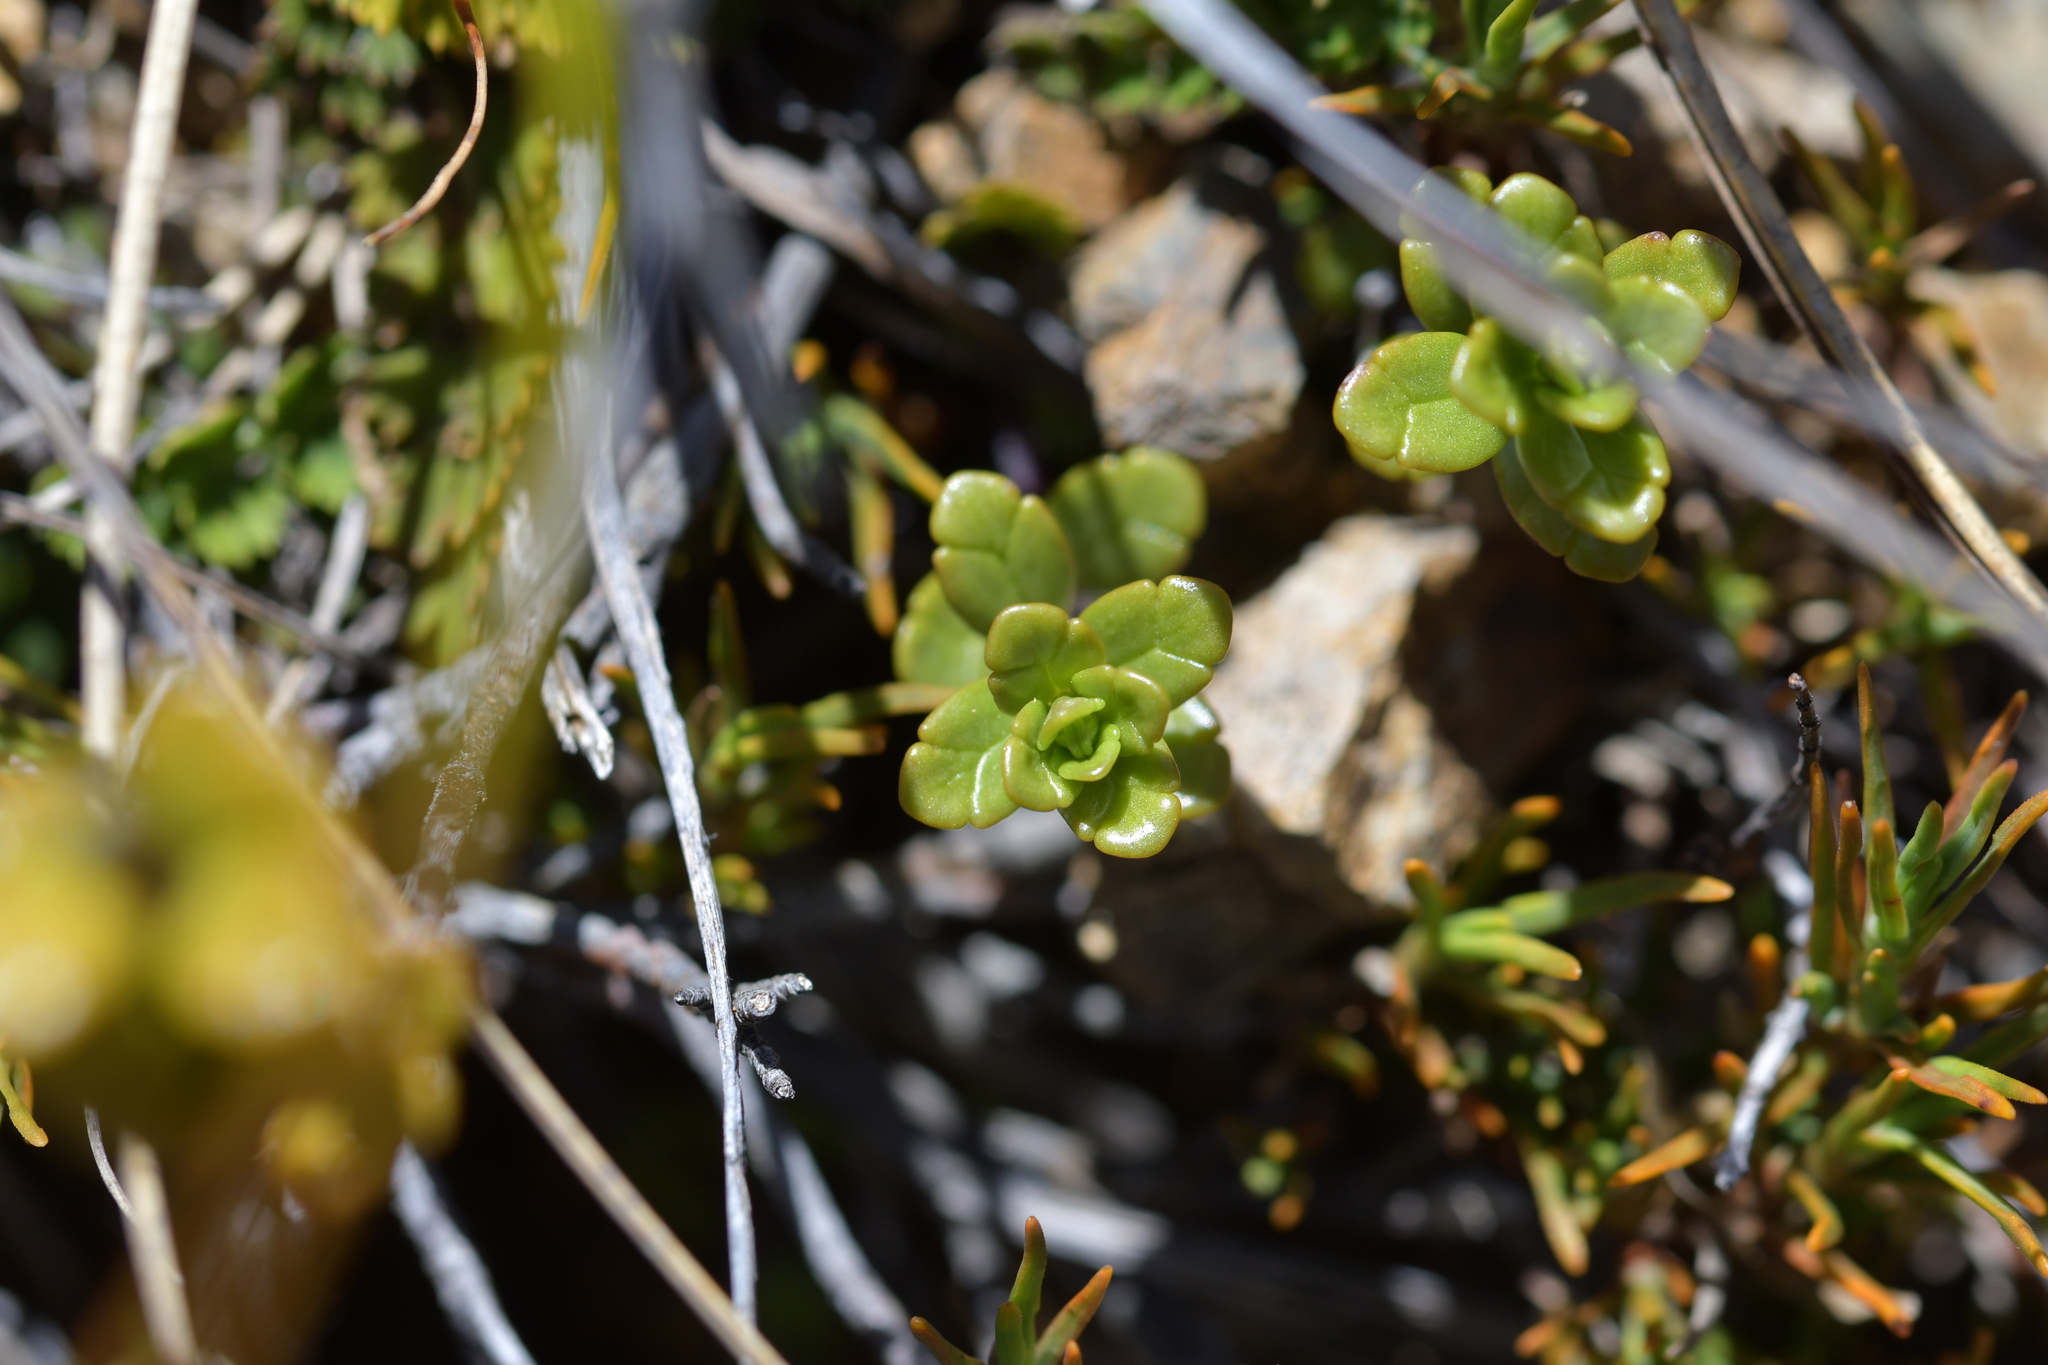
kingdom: Plantae
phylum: Tracheophyta
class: Magnoliopsida
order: Lamiales
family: Orobanchaceae
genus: Euphrasia
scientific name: Euphrasia monroi
